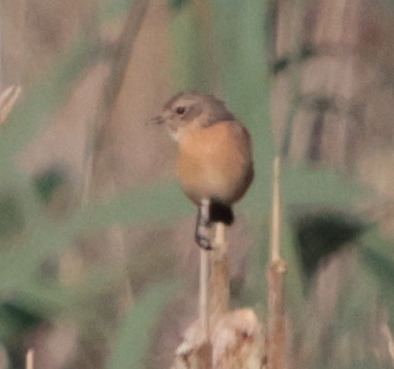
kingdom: Animalia
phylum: Chordata
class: Aves
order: Passeriformes
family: Muscicapidae
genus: Saxicola
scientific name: Saxicola rubicola
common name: European stonechat
